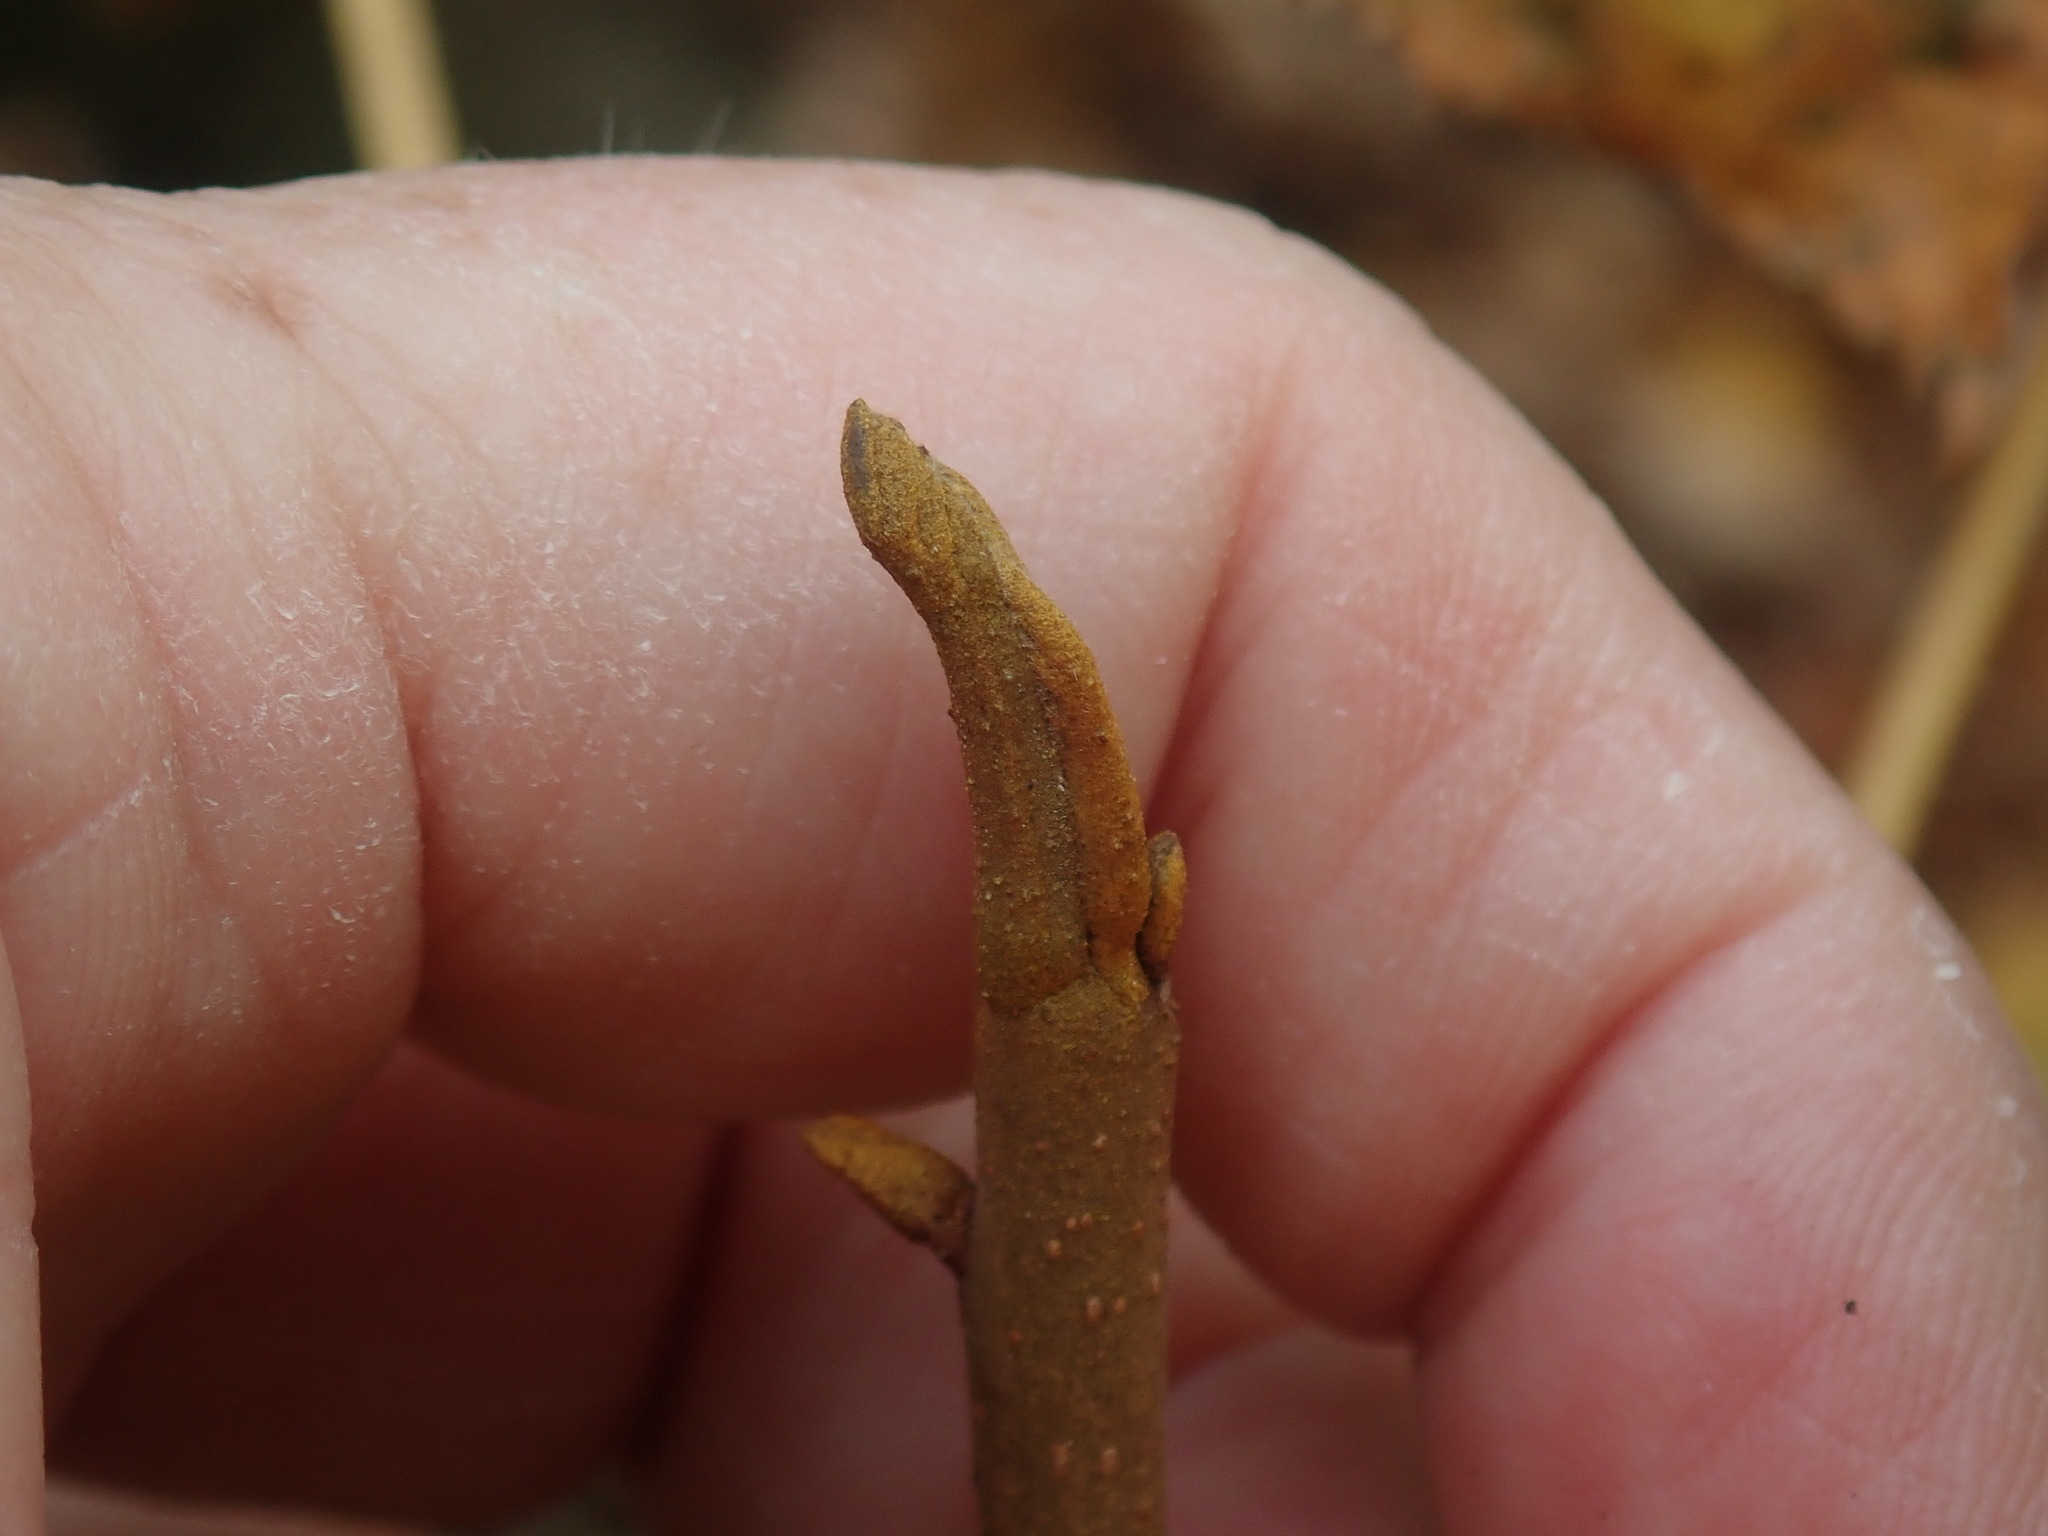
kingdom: Plantae
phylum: Tracheophyta
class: Magnoliopsida
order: Fagales
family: Juglandaceae
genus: Carya
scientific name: Carya cordiformis
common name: Bitternut hickory
